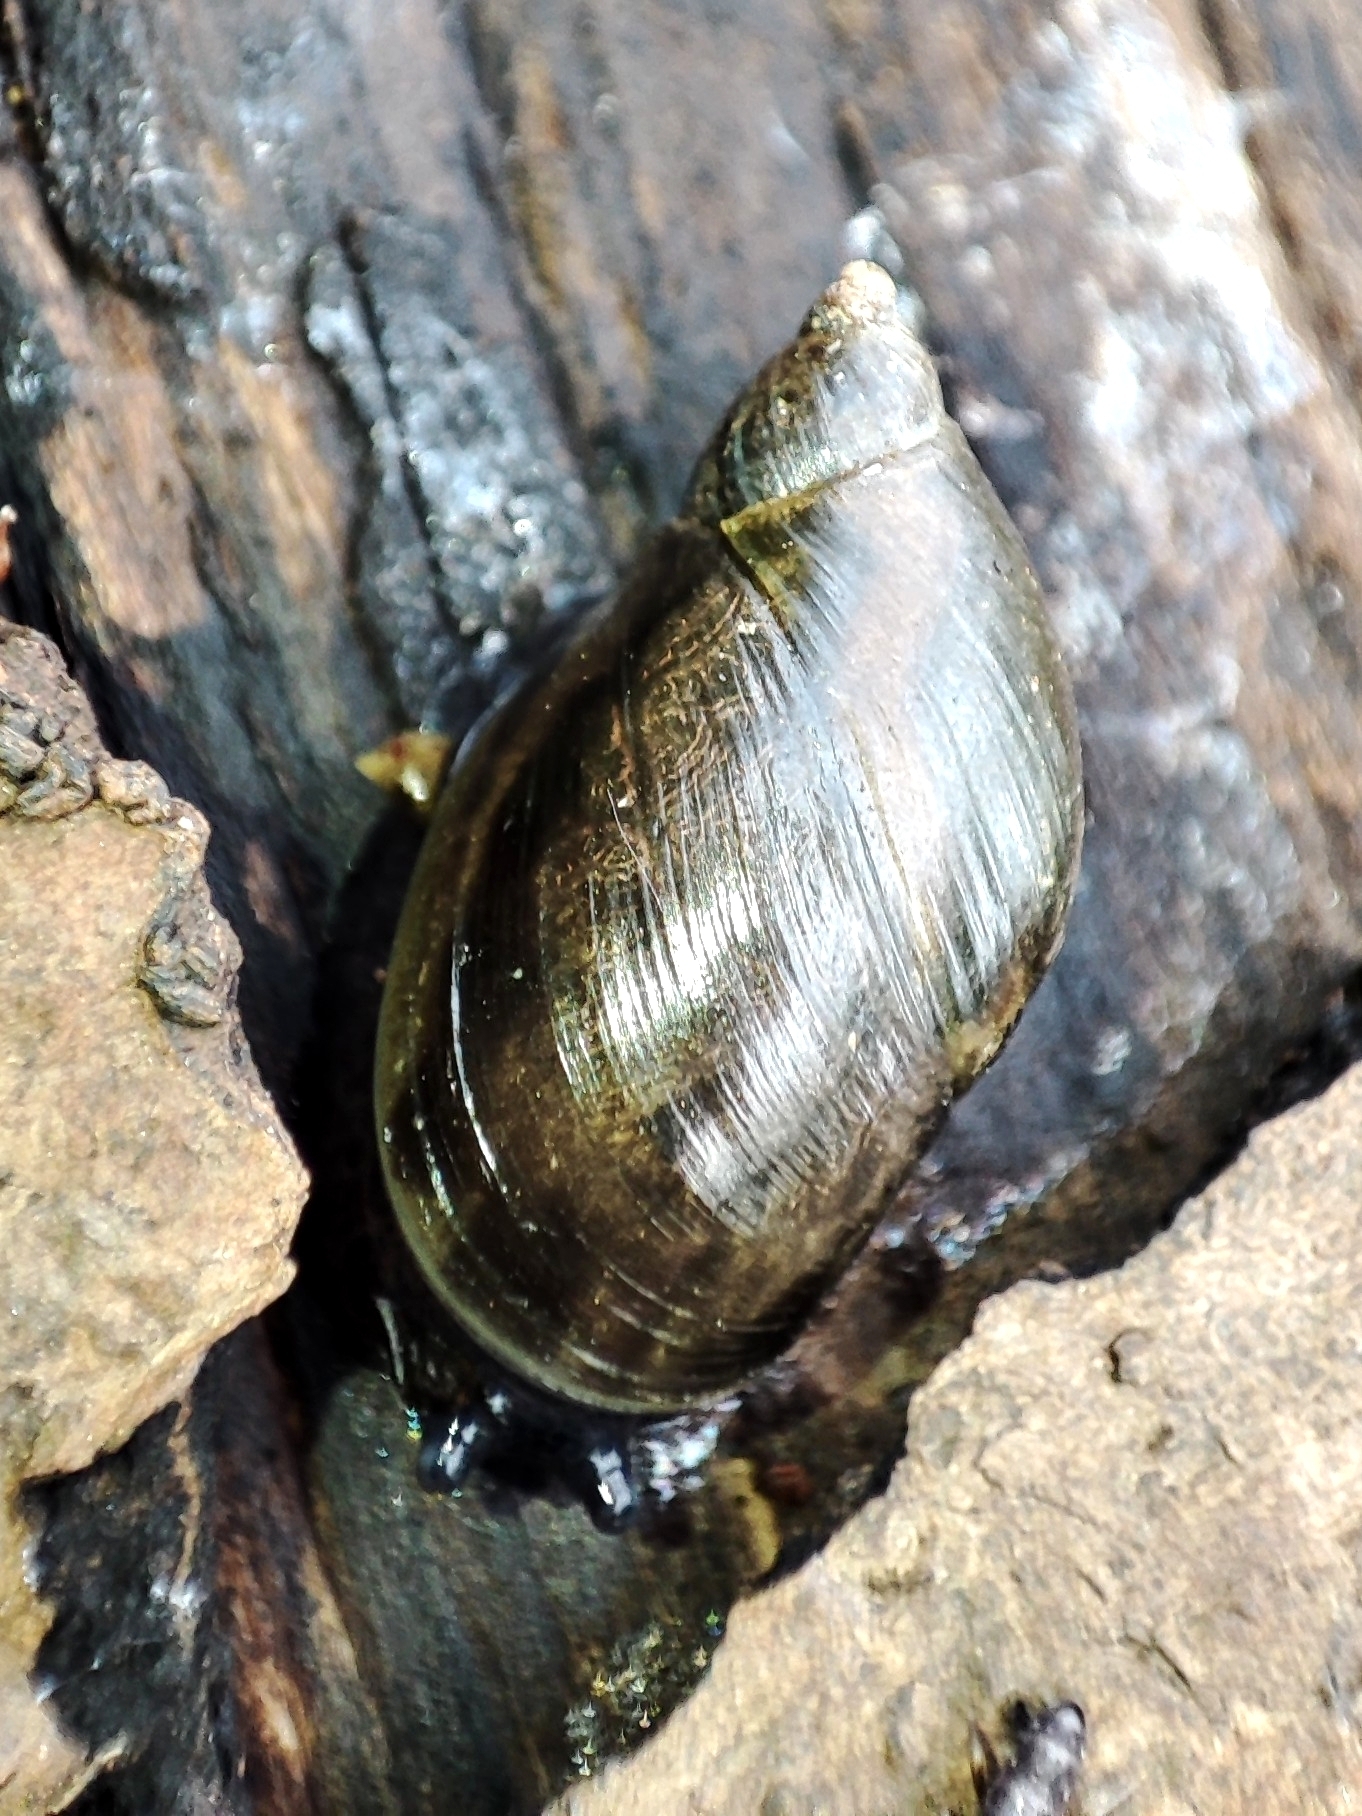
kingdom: Animalia
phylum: Mollusca
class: Gastropoda
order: Stylommatophora
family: Succineidae
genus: Succinea
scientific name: Succinea putris
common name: European ambersnail
